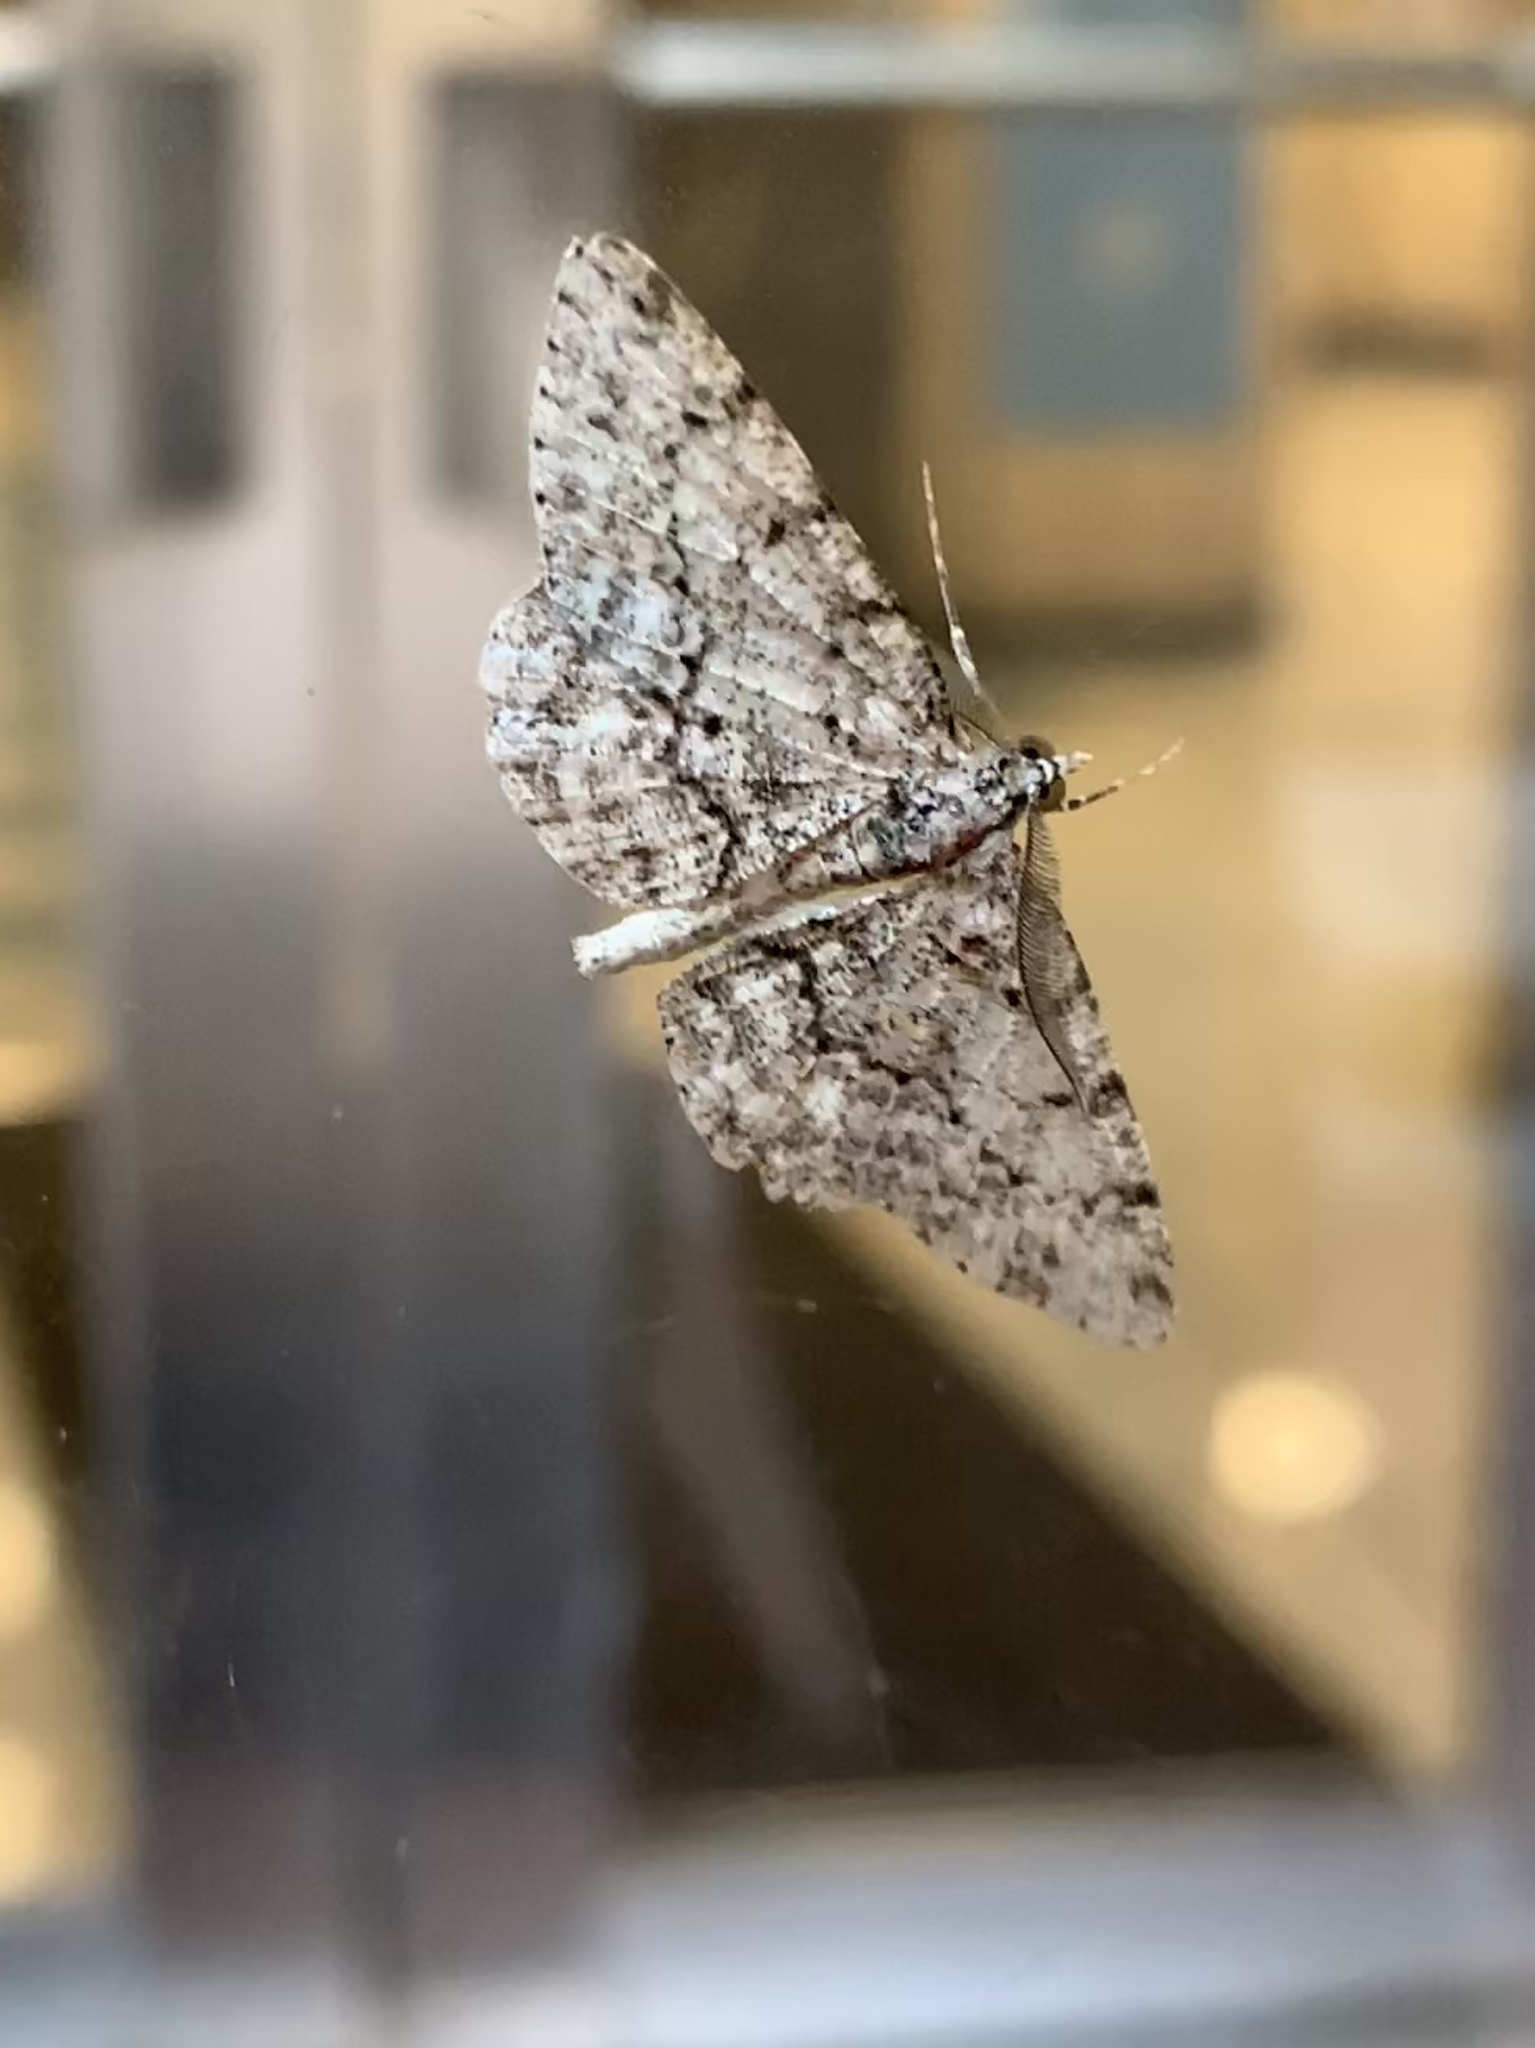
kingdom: Animalia
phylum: Arthropoda
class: Insecta
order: Lepidoptera
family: Geometridae
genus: Protoboarmia
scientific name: Protoboarmia porcelaria
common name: Porcelain gray
